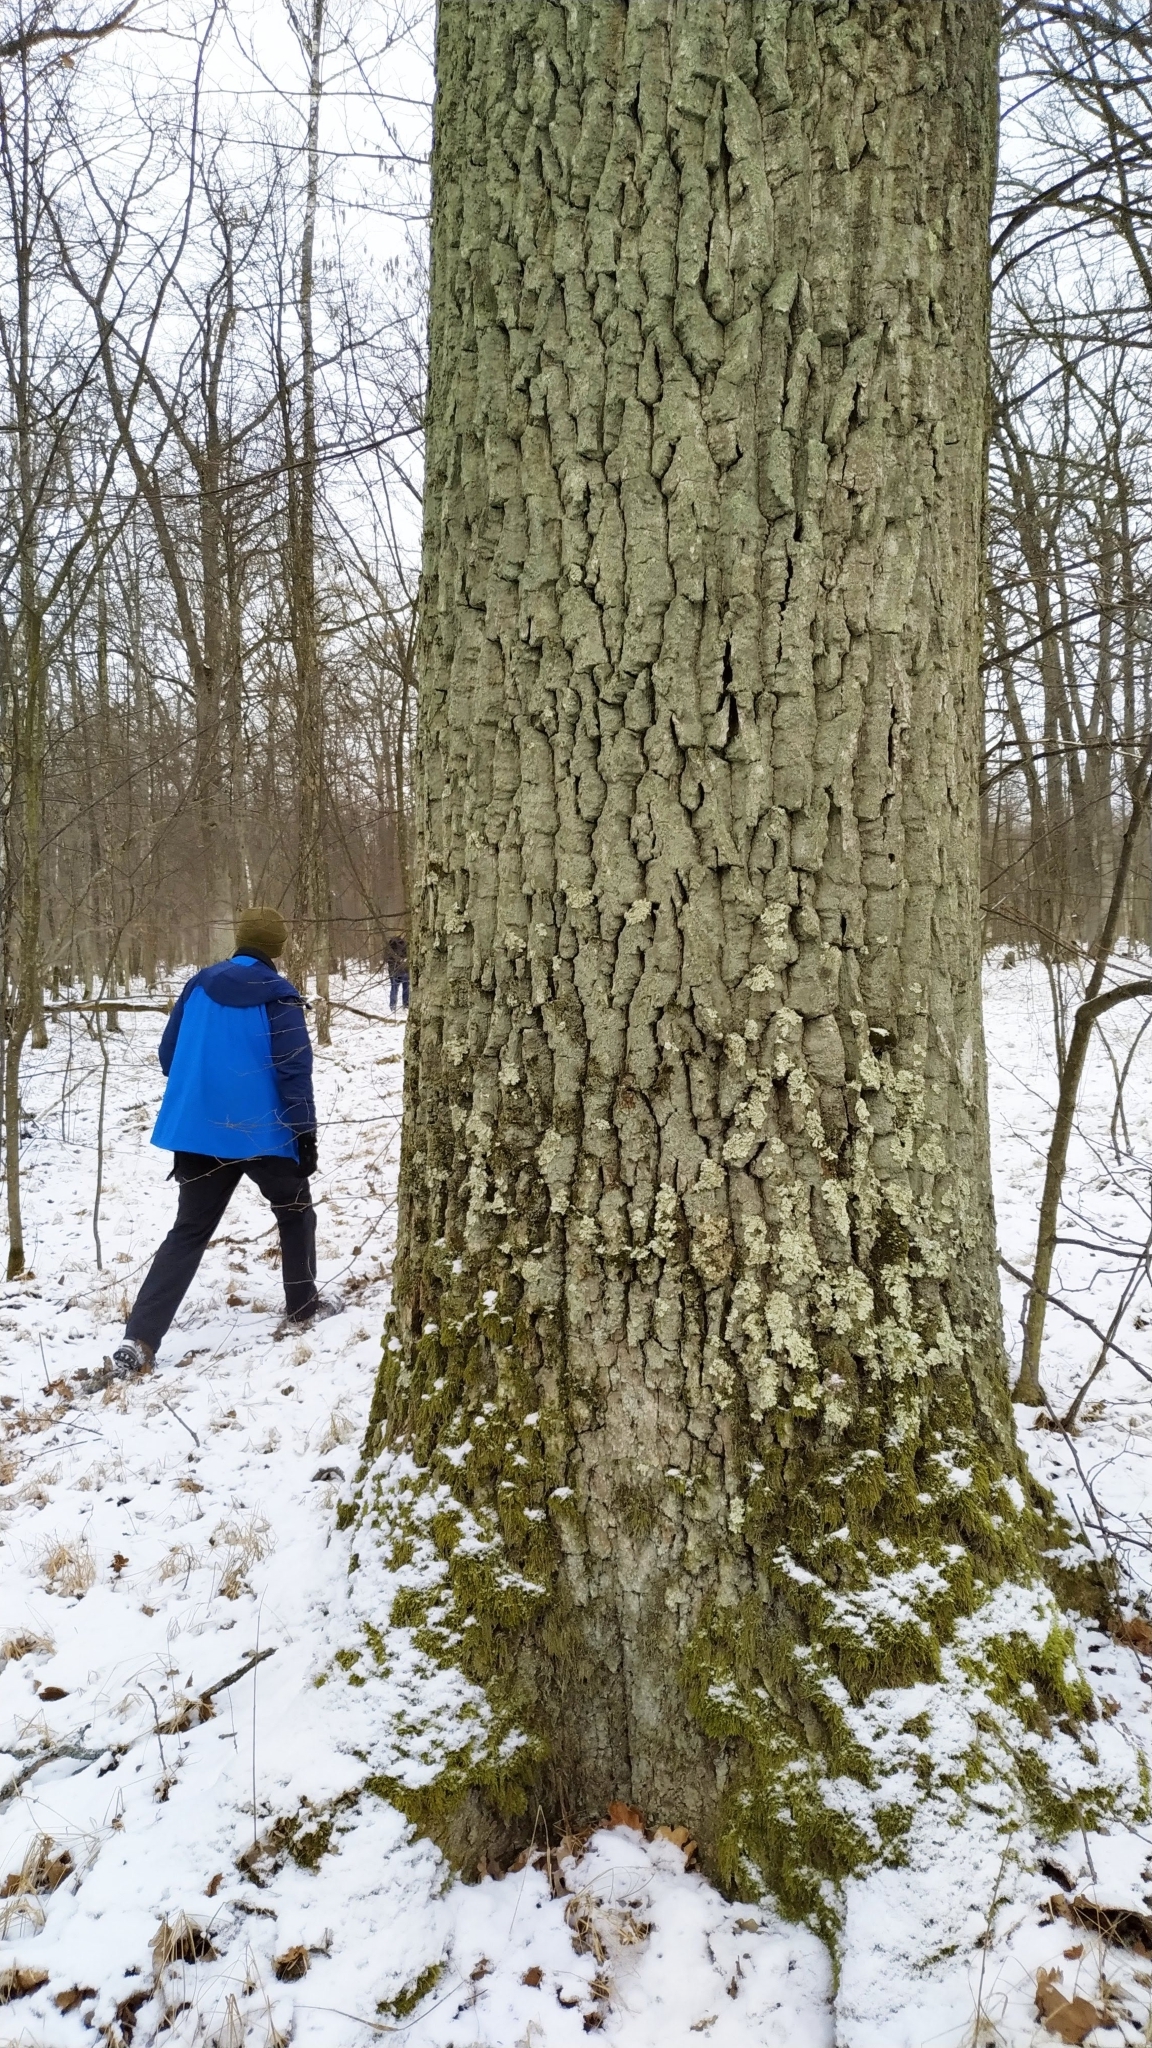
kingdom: Plantae
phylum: Tracheophyta
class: Magnoliopsida
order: Fagales
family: Fagaceae
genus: Quercus
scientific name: Quercus robur
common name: Pedunculate oak
